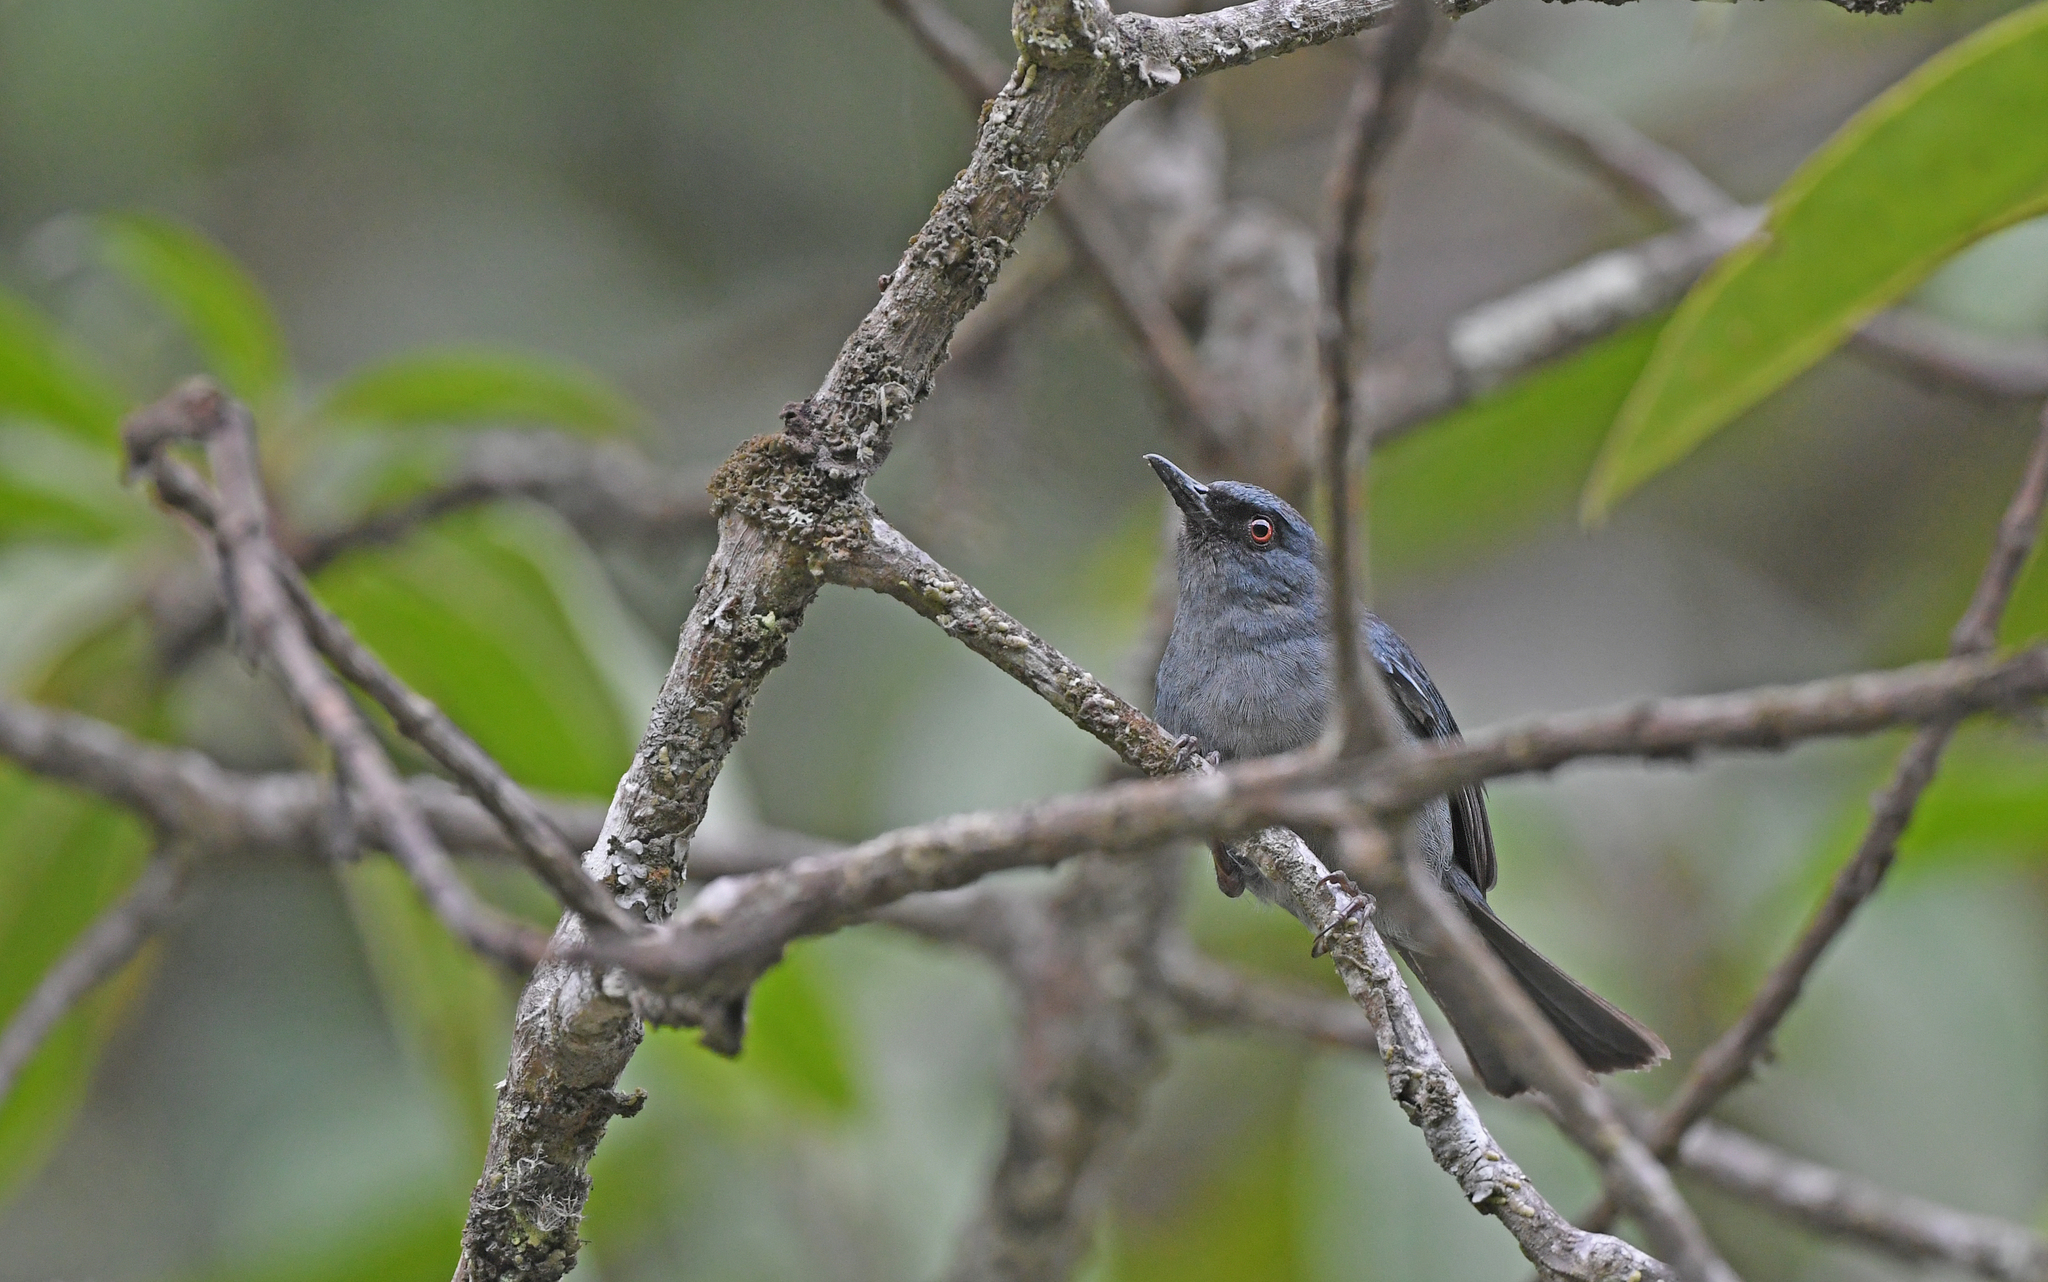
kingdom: Animalia
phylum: Chordata
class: Aves
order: Passeriformes
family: Thraupidae
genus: Diglossa
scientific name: Diglossa caerulescens
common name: Bluish flowerpiercer
